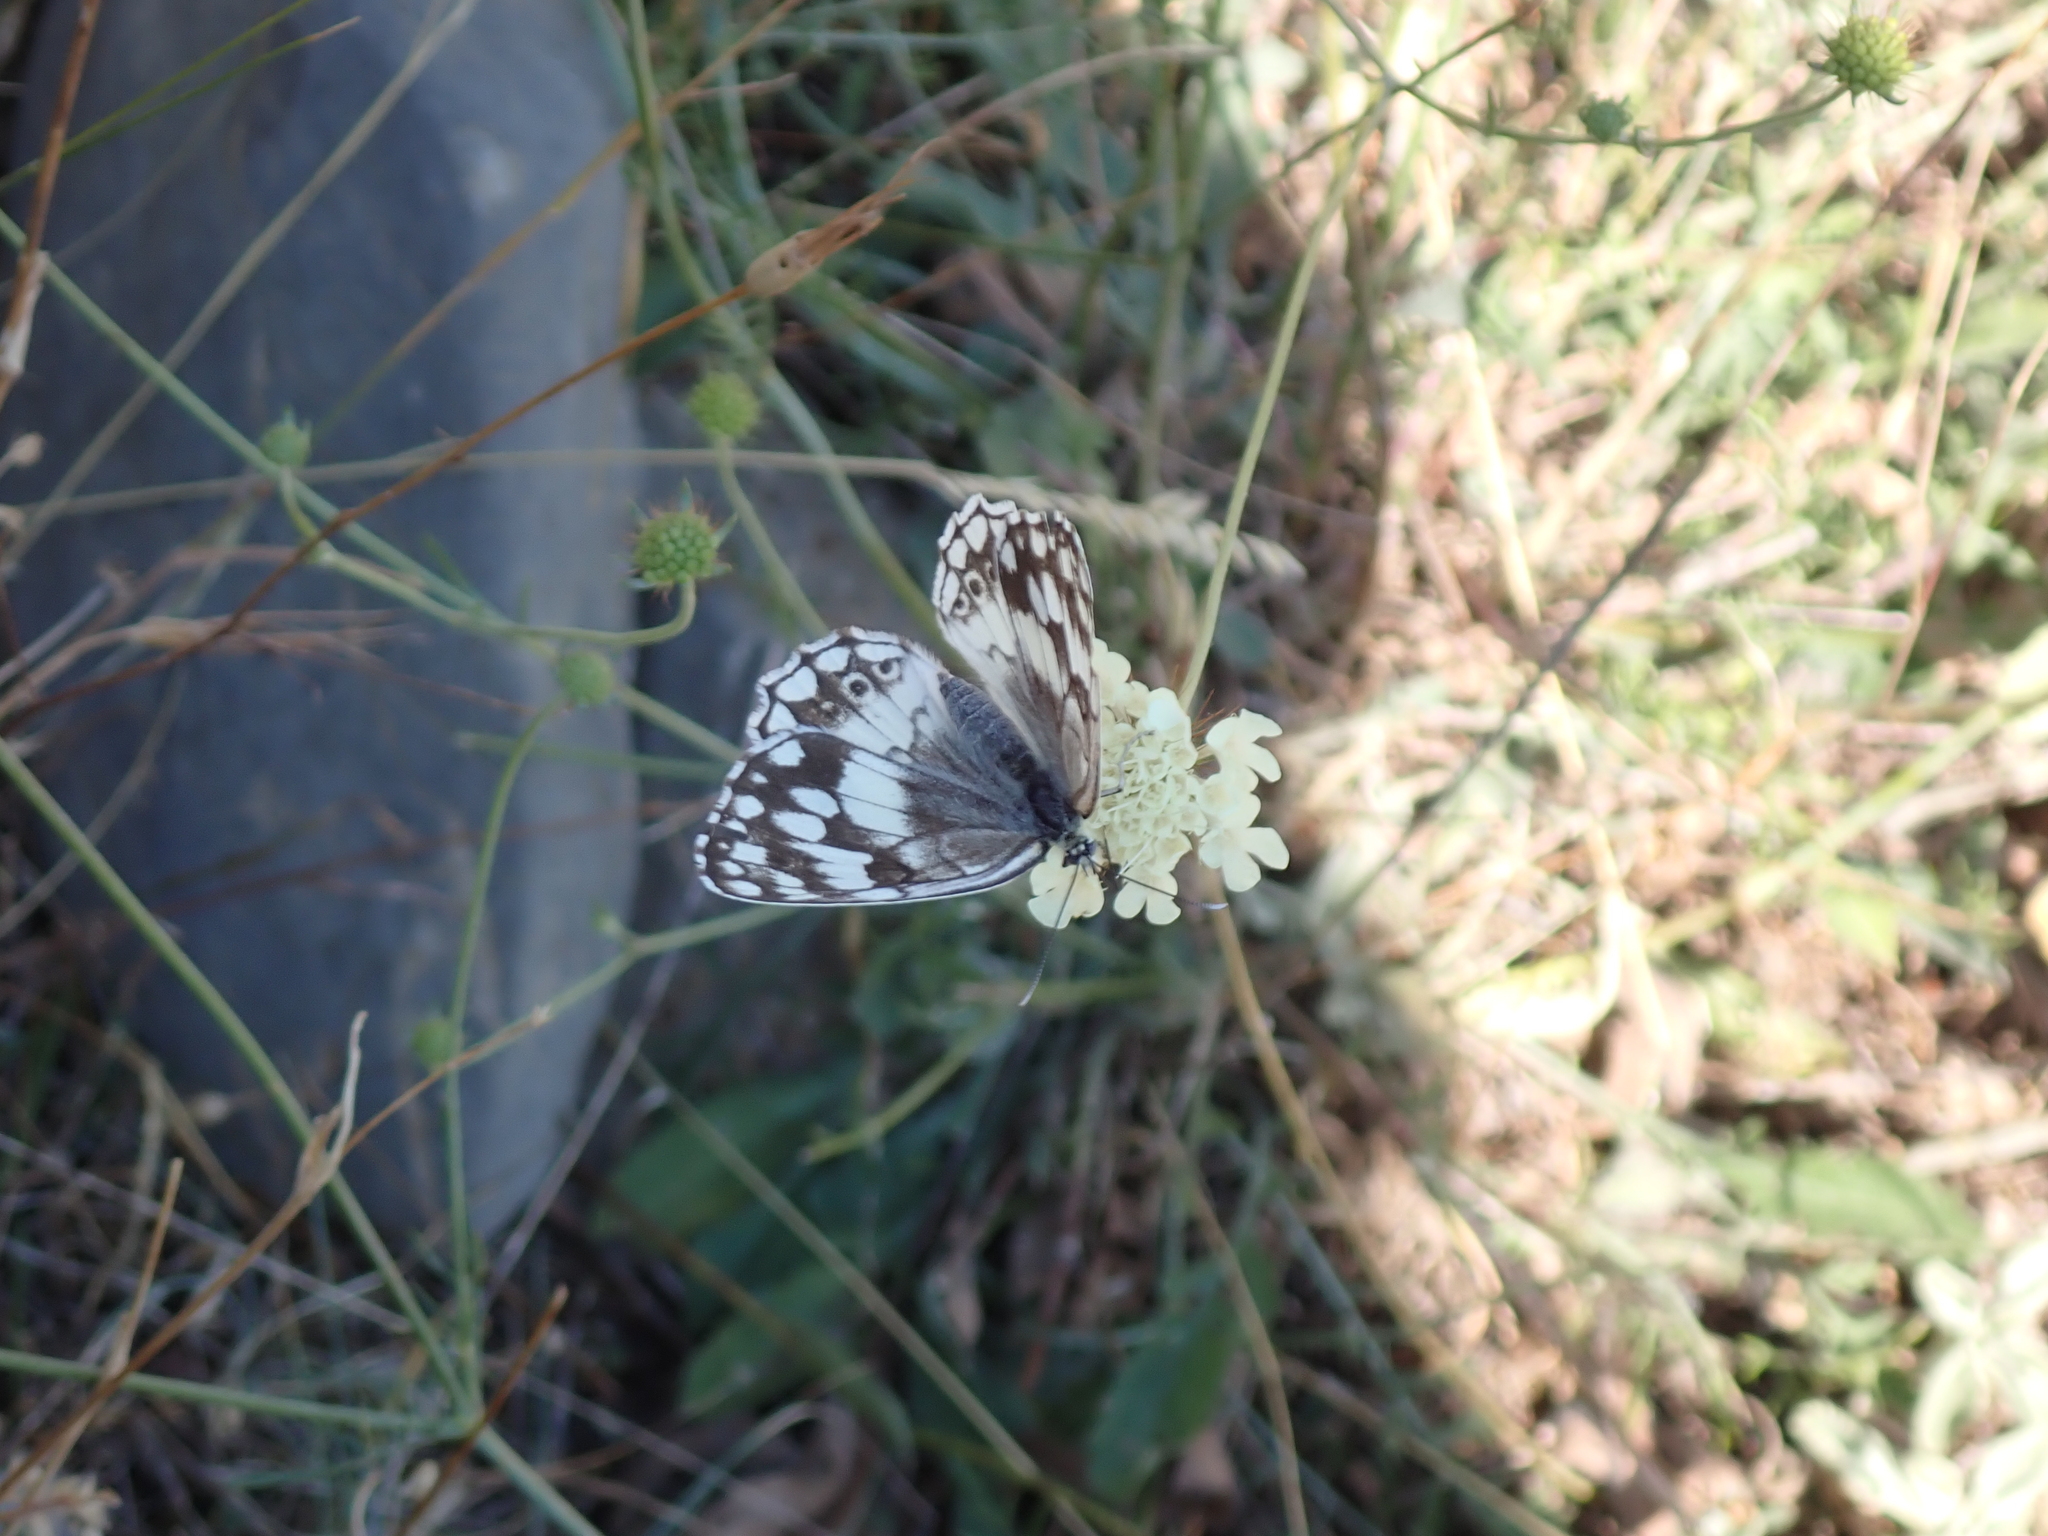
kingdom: Animalia
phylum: Arthropoda
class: Insecta
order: Lepidoptera
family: Nymphalidae
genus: Melanargia
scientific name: Melanargia larissa
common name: Balkan marbled white
